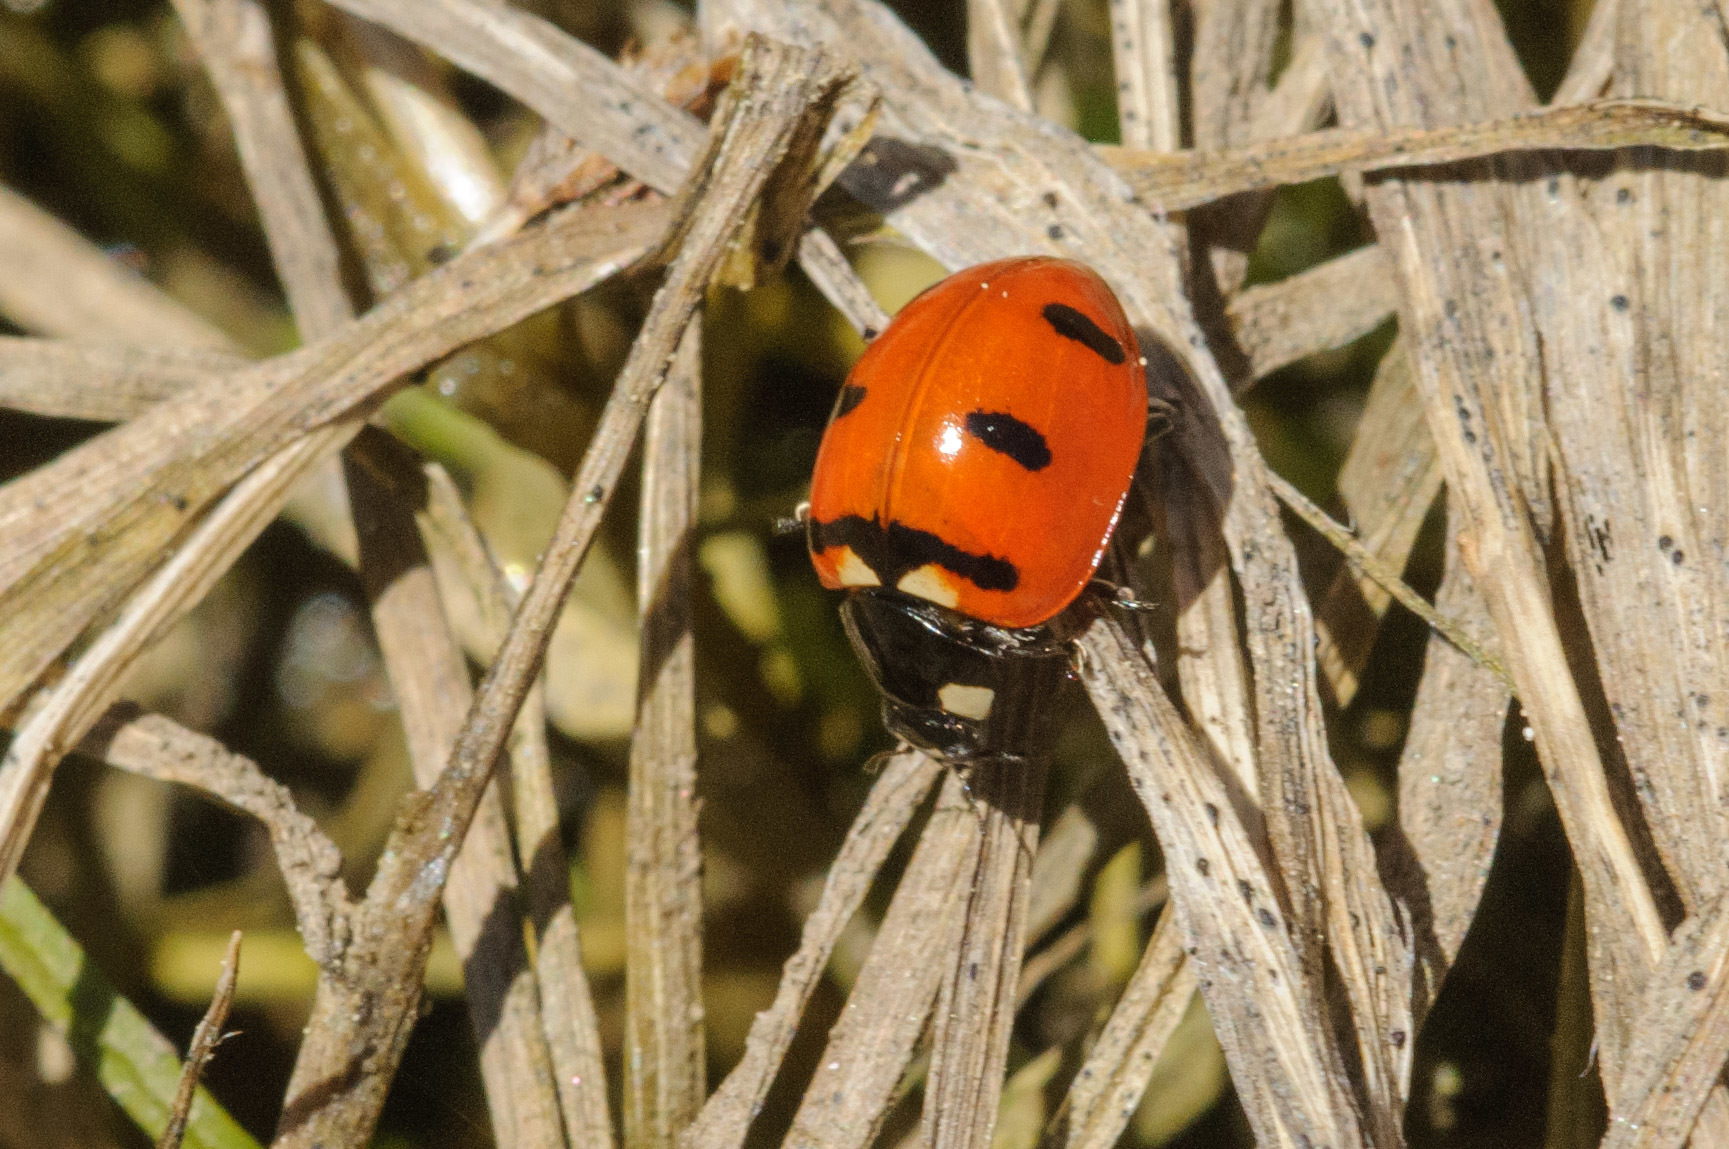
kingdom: Animalia
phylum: Arthropoda
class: Insecta
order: Coleoptera
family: Coccinellidae
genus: Coccinella
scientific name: Coccinella transversoguttata
